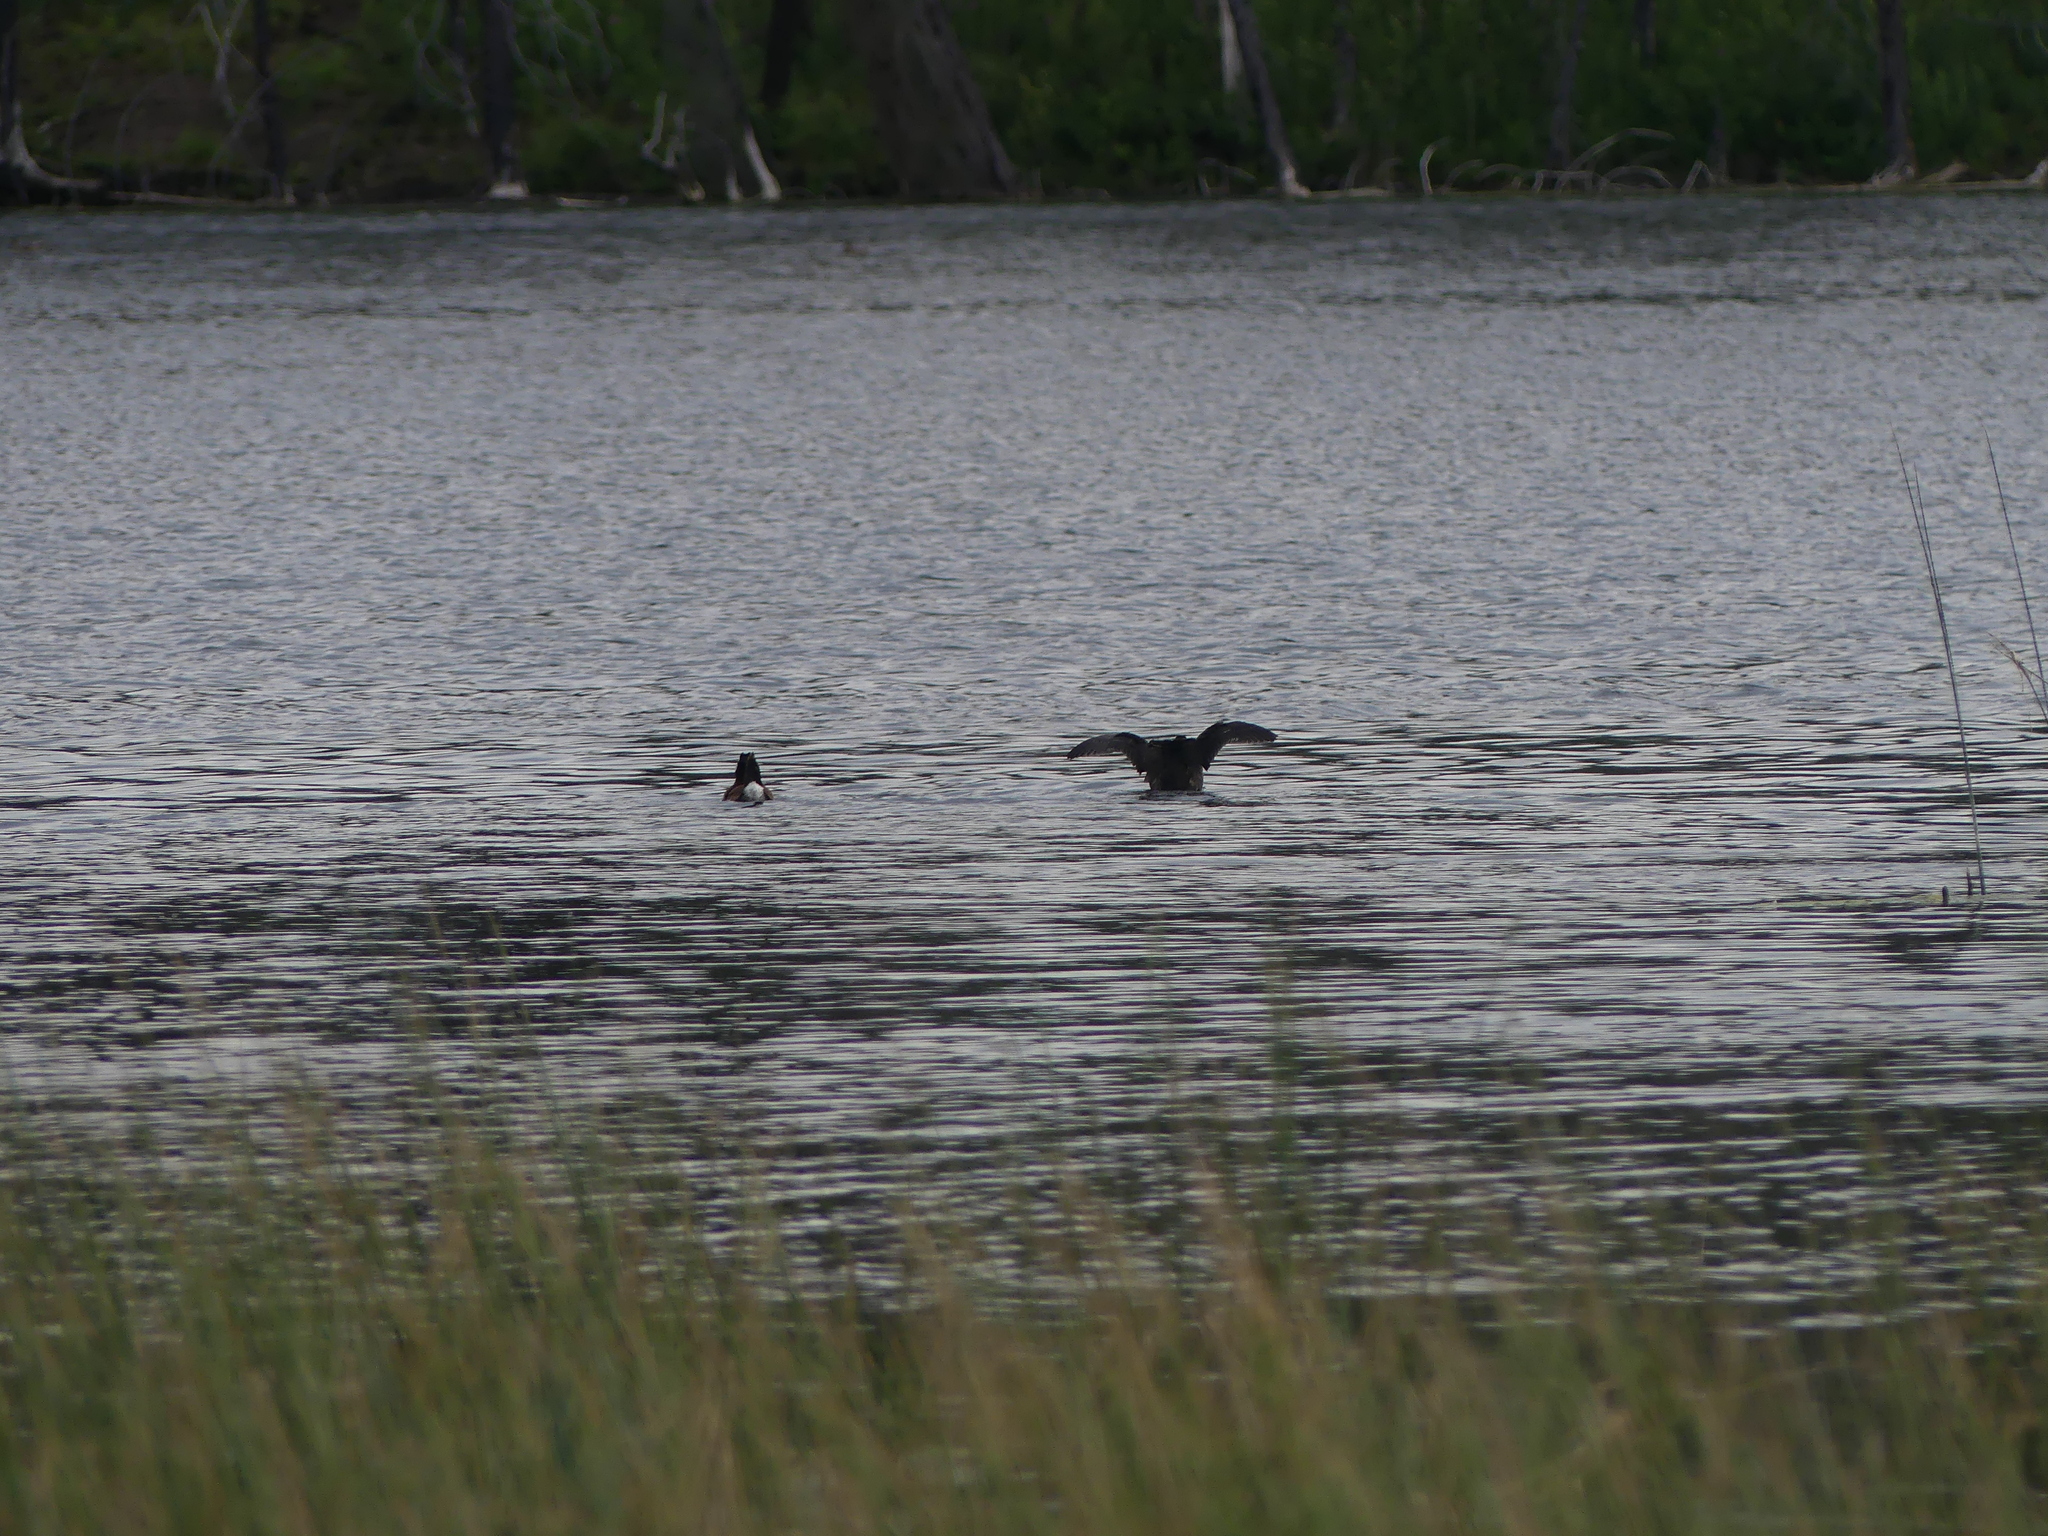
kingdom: Animalia
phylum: Chordata
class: Aves
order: Anseriformes
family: Anatidae
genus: Oxyura
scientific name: Oxyura jamaicensis
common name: Ruddy duck
